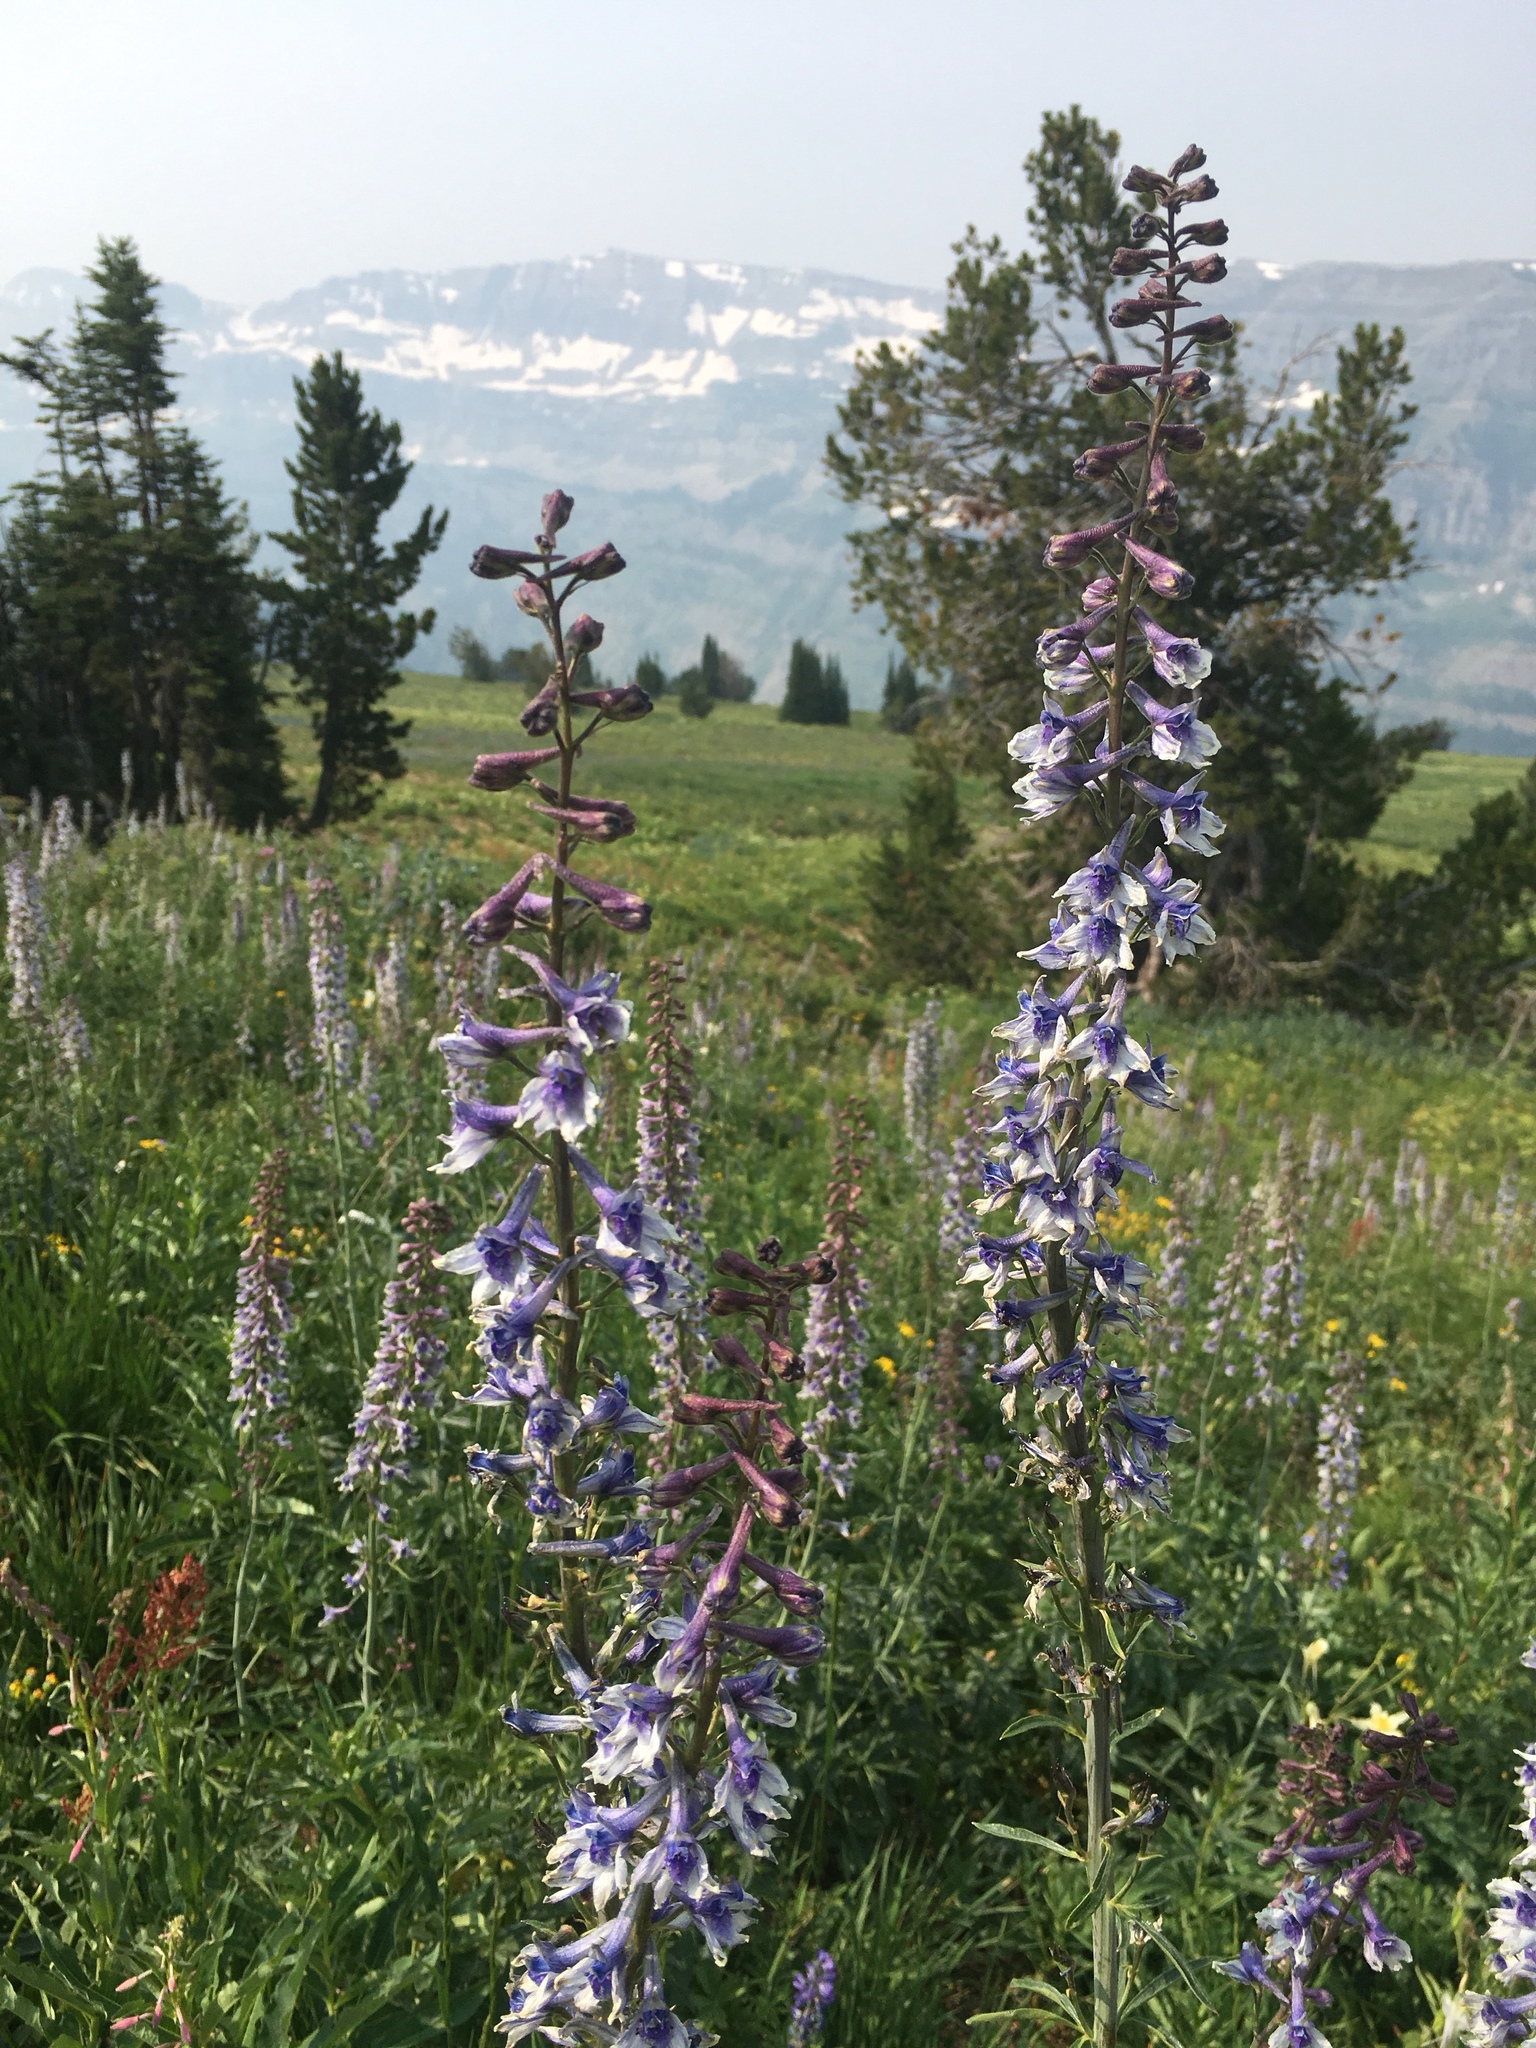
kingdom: Plantae
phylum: Tracheophyta
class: Magnoliopsida
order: Ranunculales
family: Ranunculaceae
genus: Delphinium
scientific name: Delphinium occidentale
